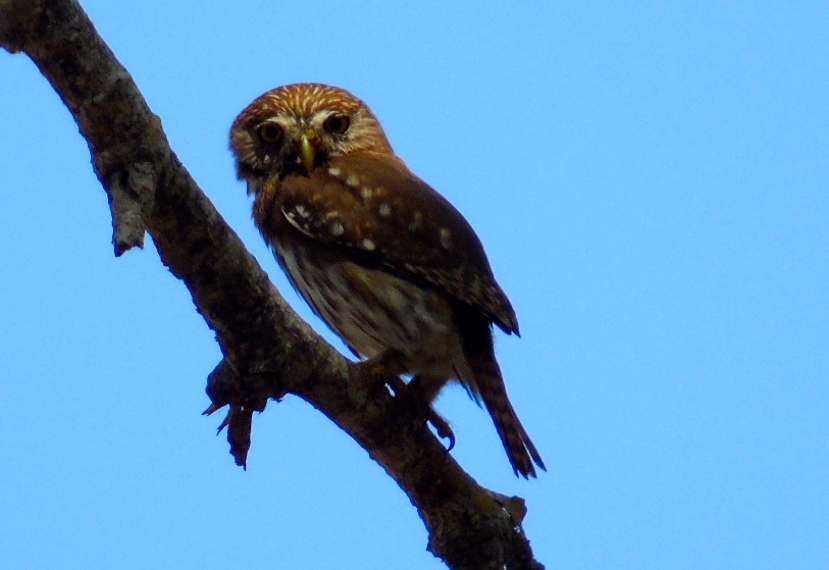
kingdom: Animalia
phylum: Chordata
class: Aves
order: Strigiformes
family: Strigidae
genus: Glaucidium
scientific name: Glaucidium brasilianum
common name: Ferruginous pygmy-owl
